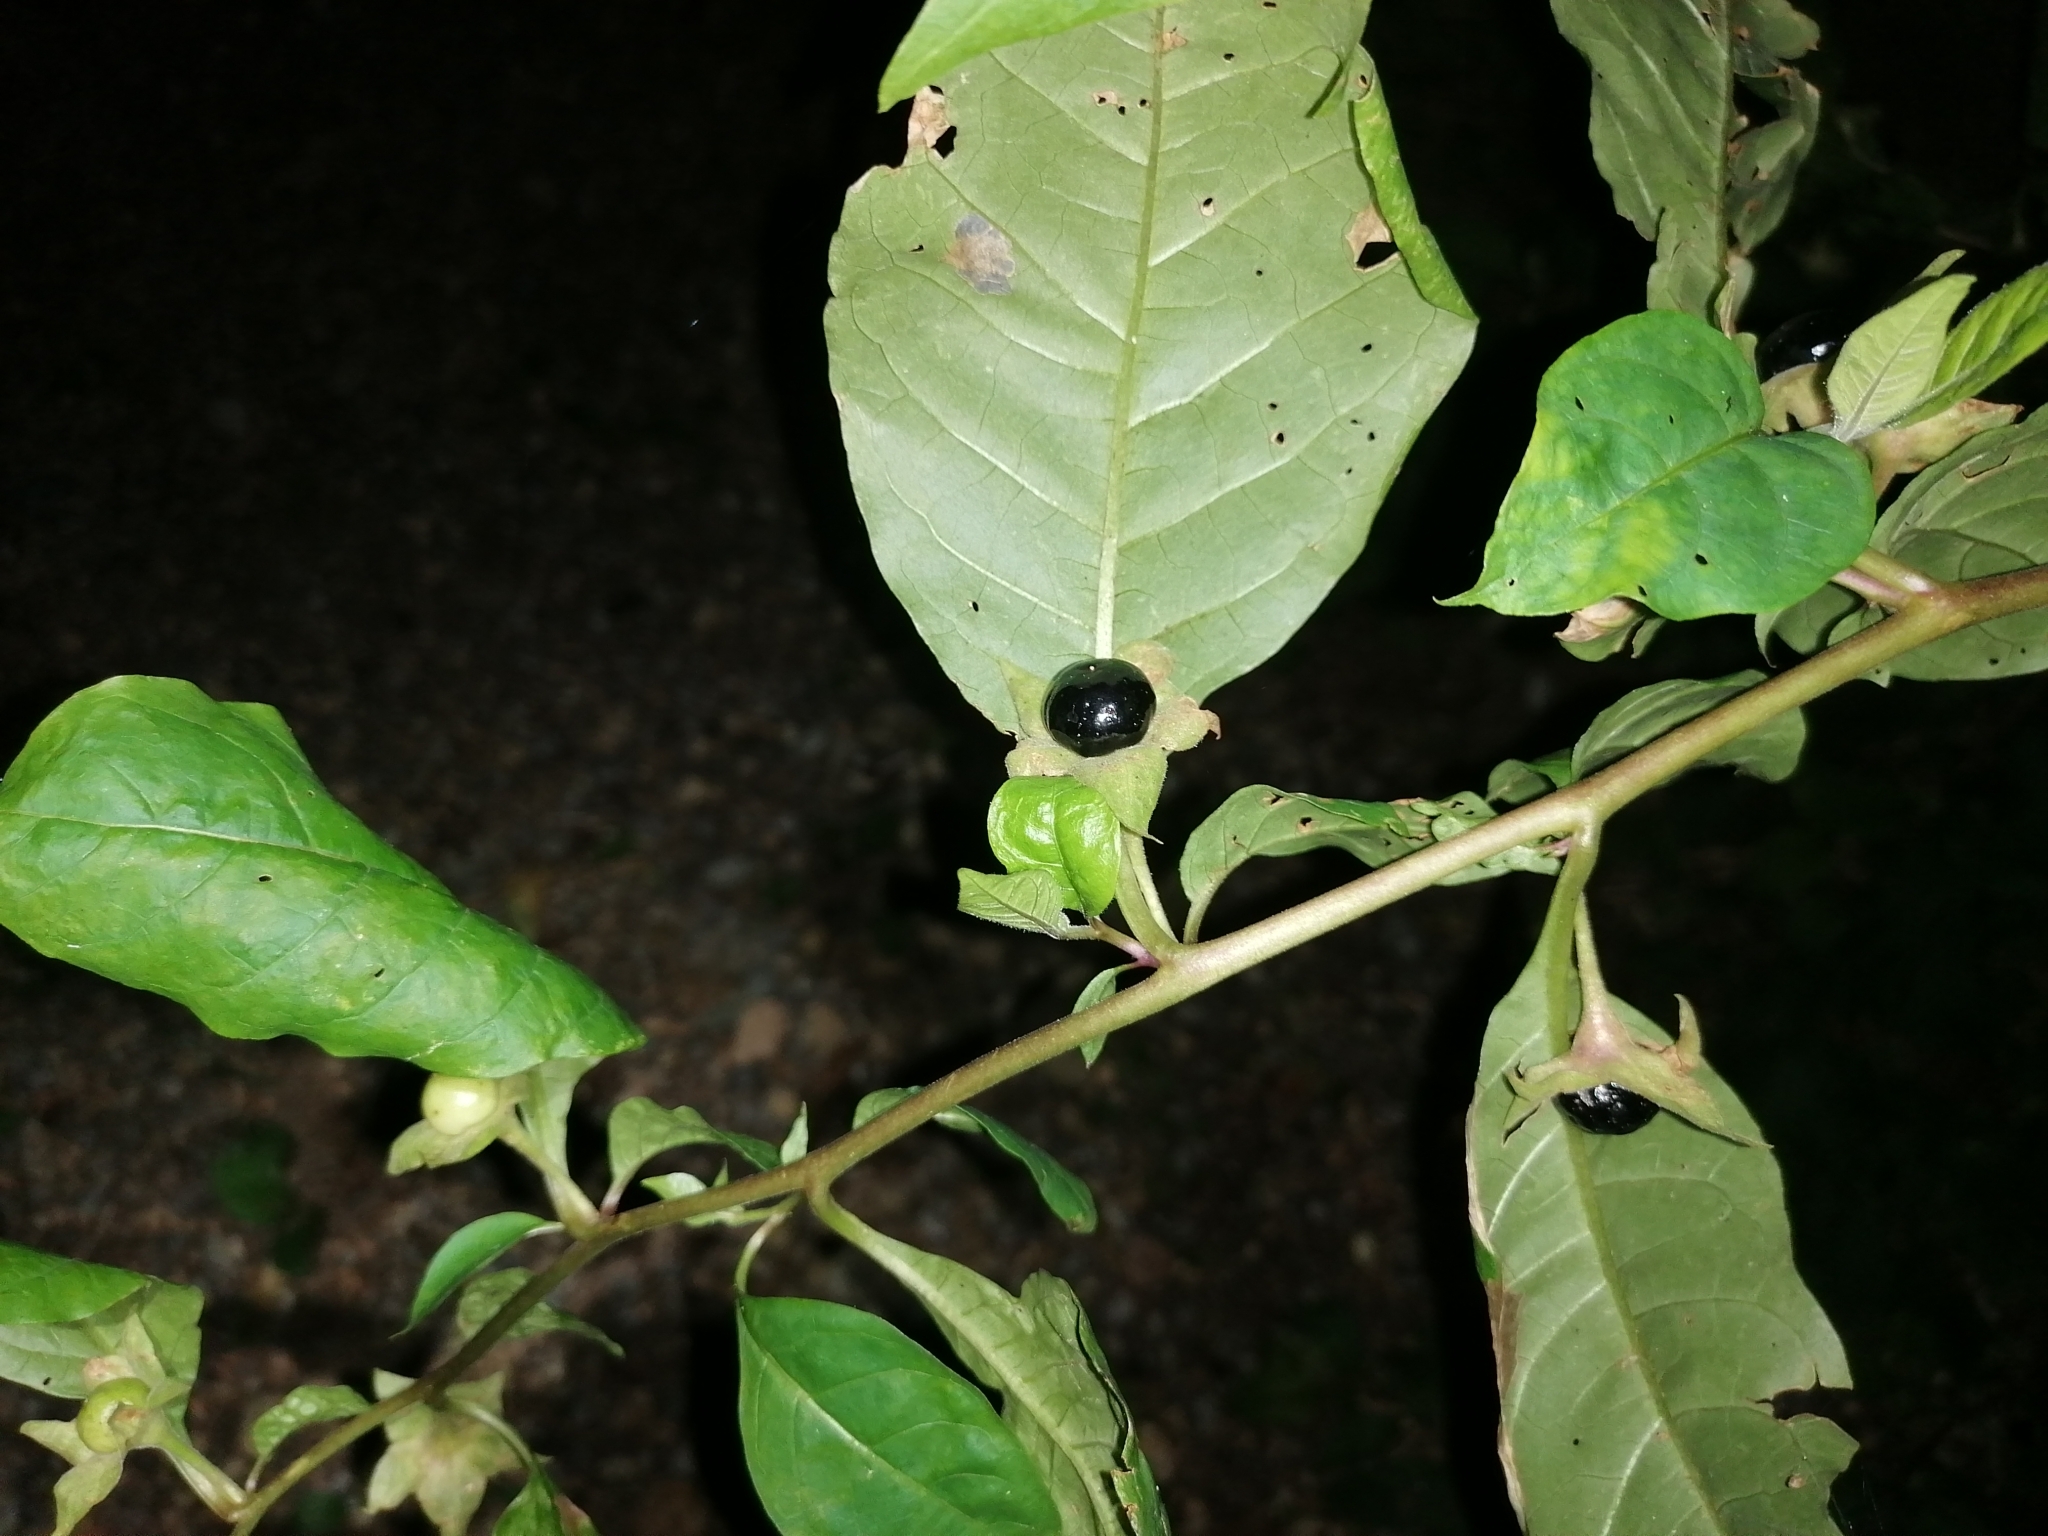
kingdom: Plantae
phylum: Tracheophyta
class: Magnoliopsida
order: Solanales
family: Solanaceae
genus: Atropa
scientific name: Atropa belladonna
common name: Deadly nightshade
